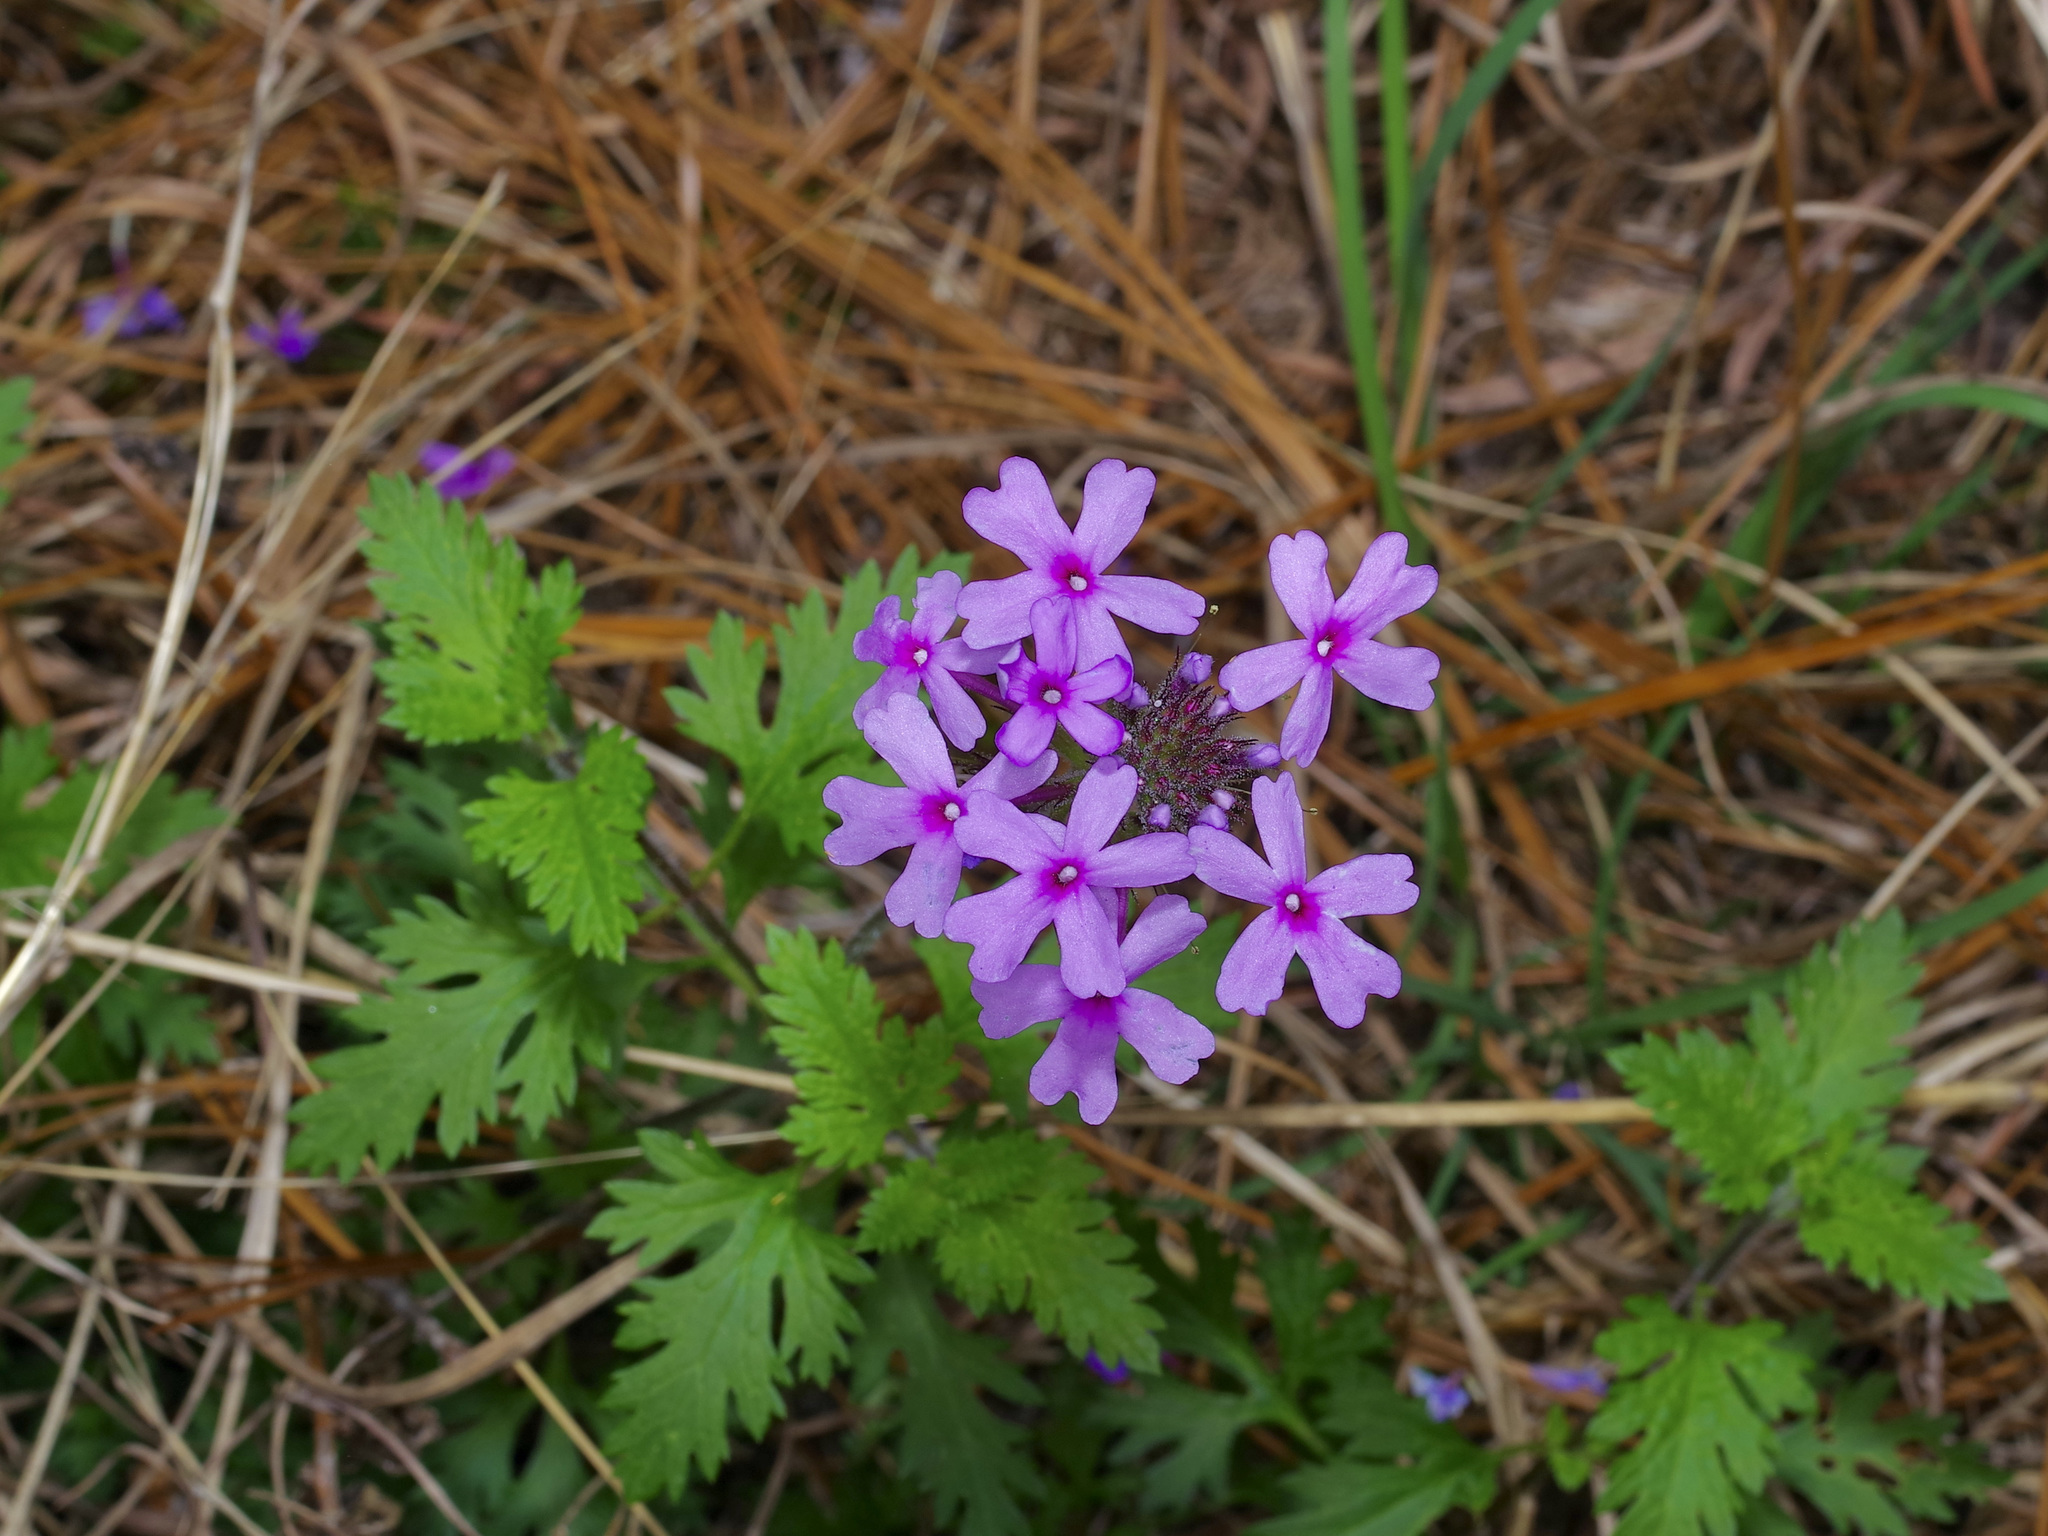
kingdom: Plantae
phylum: Tracheophyta
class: Magnoliopsida
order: Lamiales
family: Verbenaceae
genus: Verbena
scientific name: Verbena canadensis
